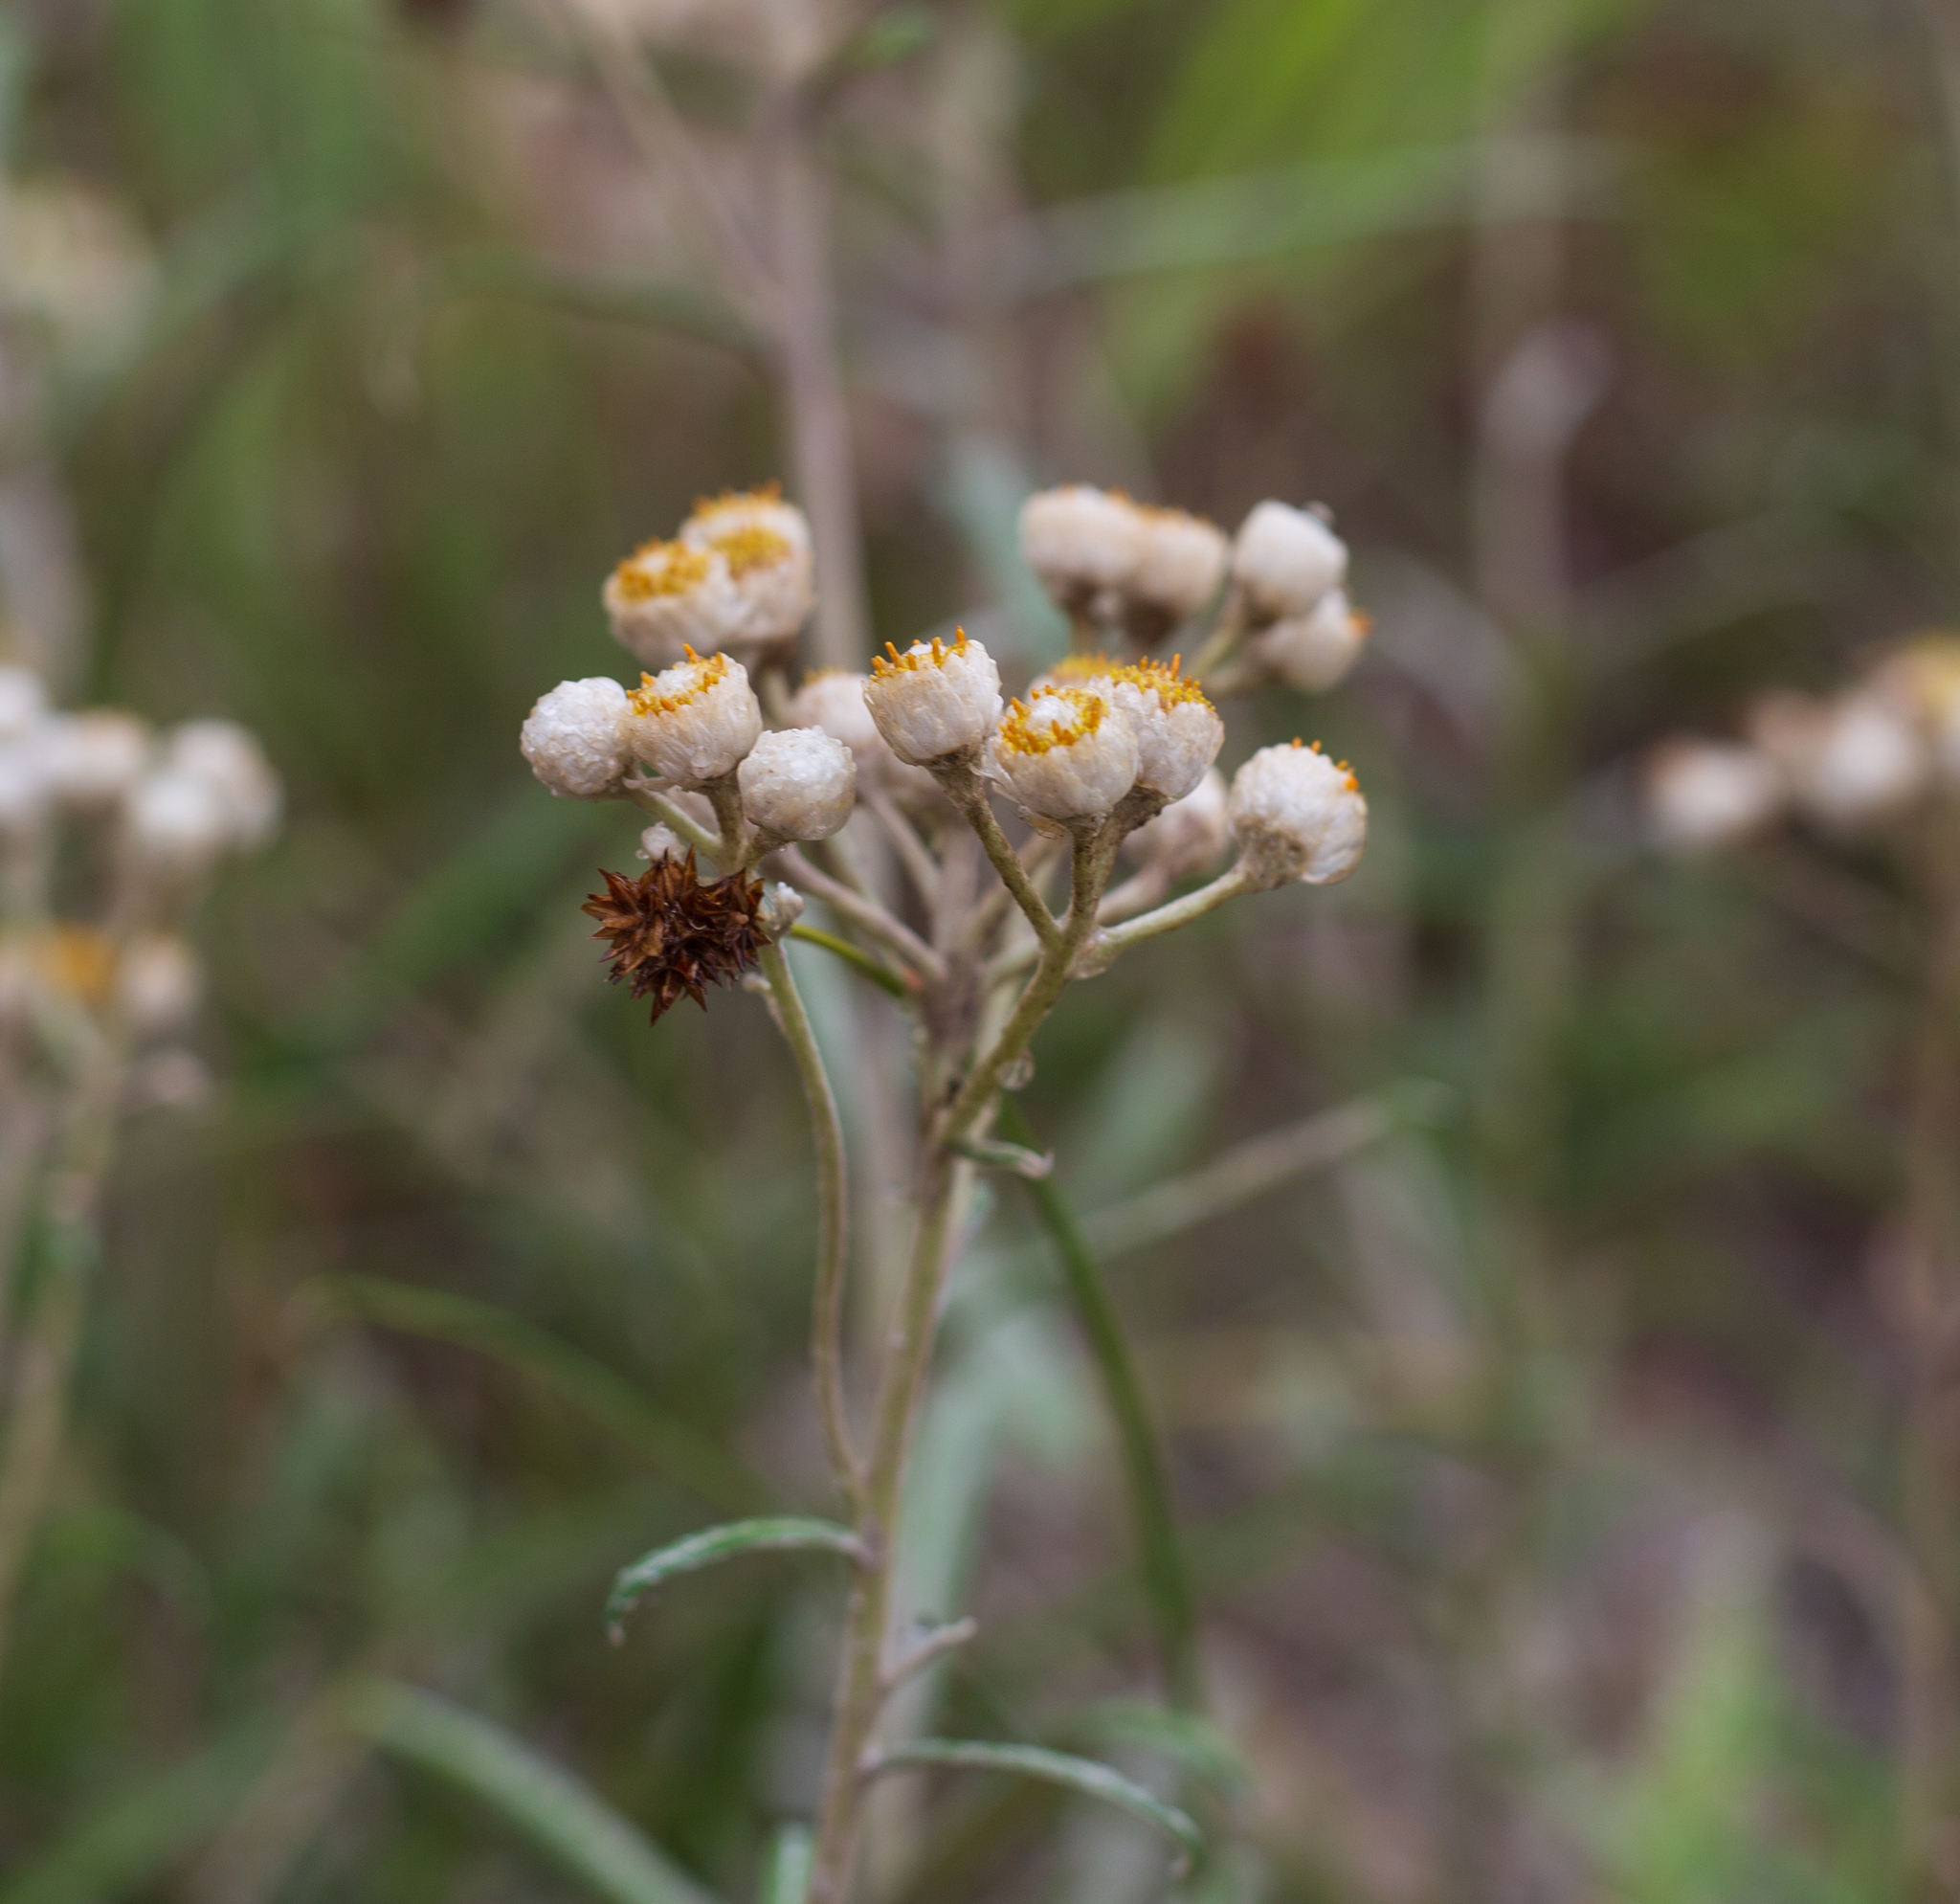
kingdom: Plantae
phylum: Tracheophyta
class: Magnoliopsida
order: Asterales
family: Asteraceae
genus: Anaphalis
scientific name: Anaphalis margaritacea
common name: Pearly everlasting
